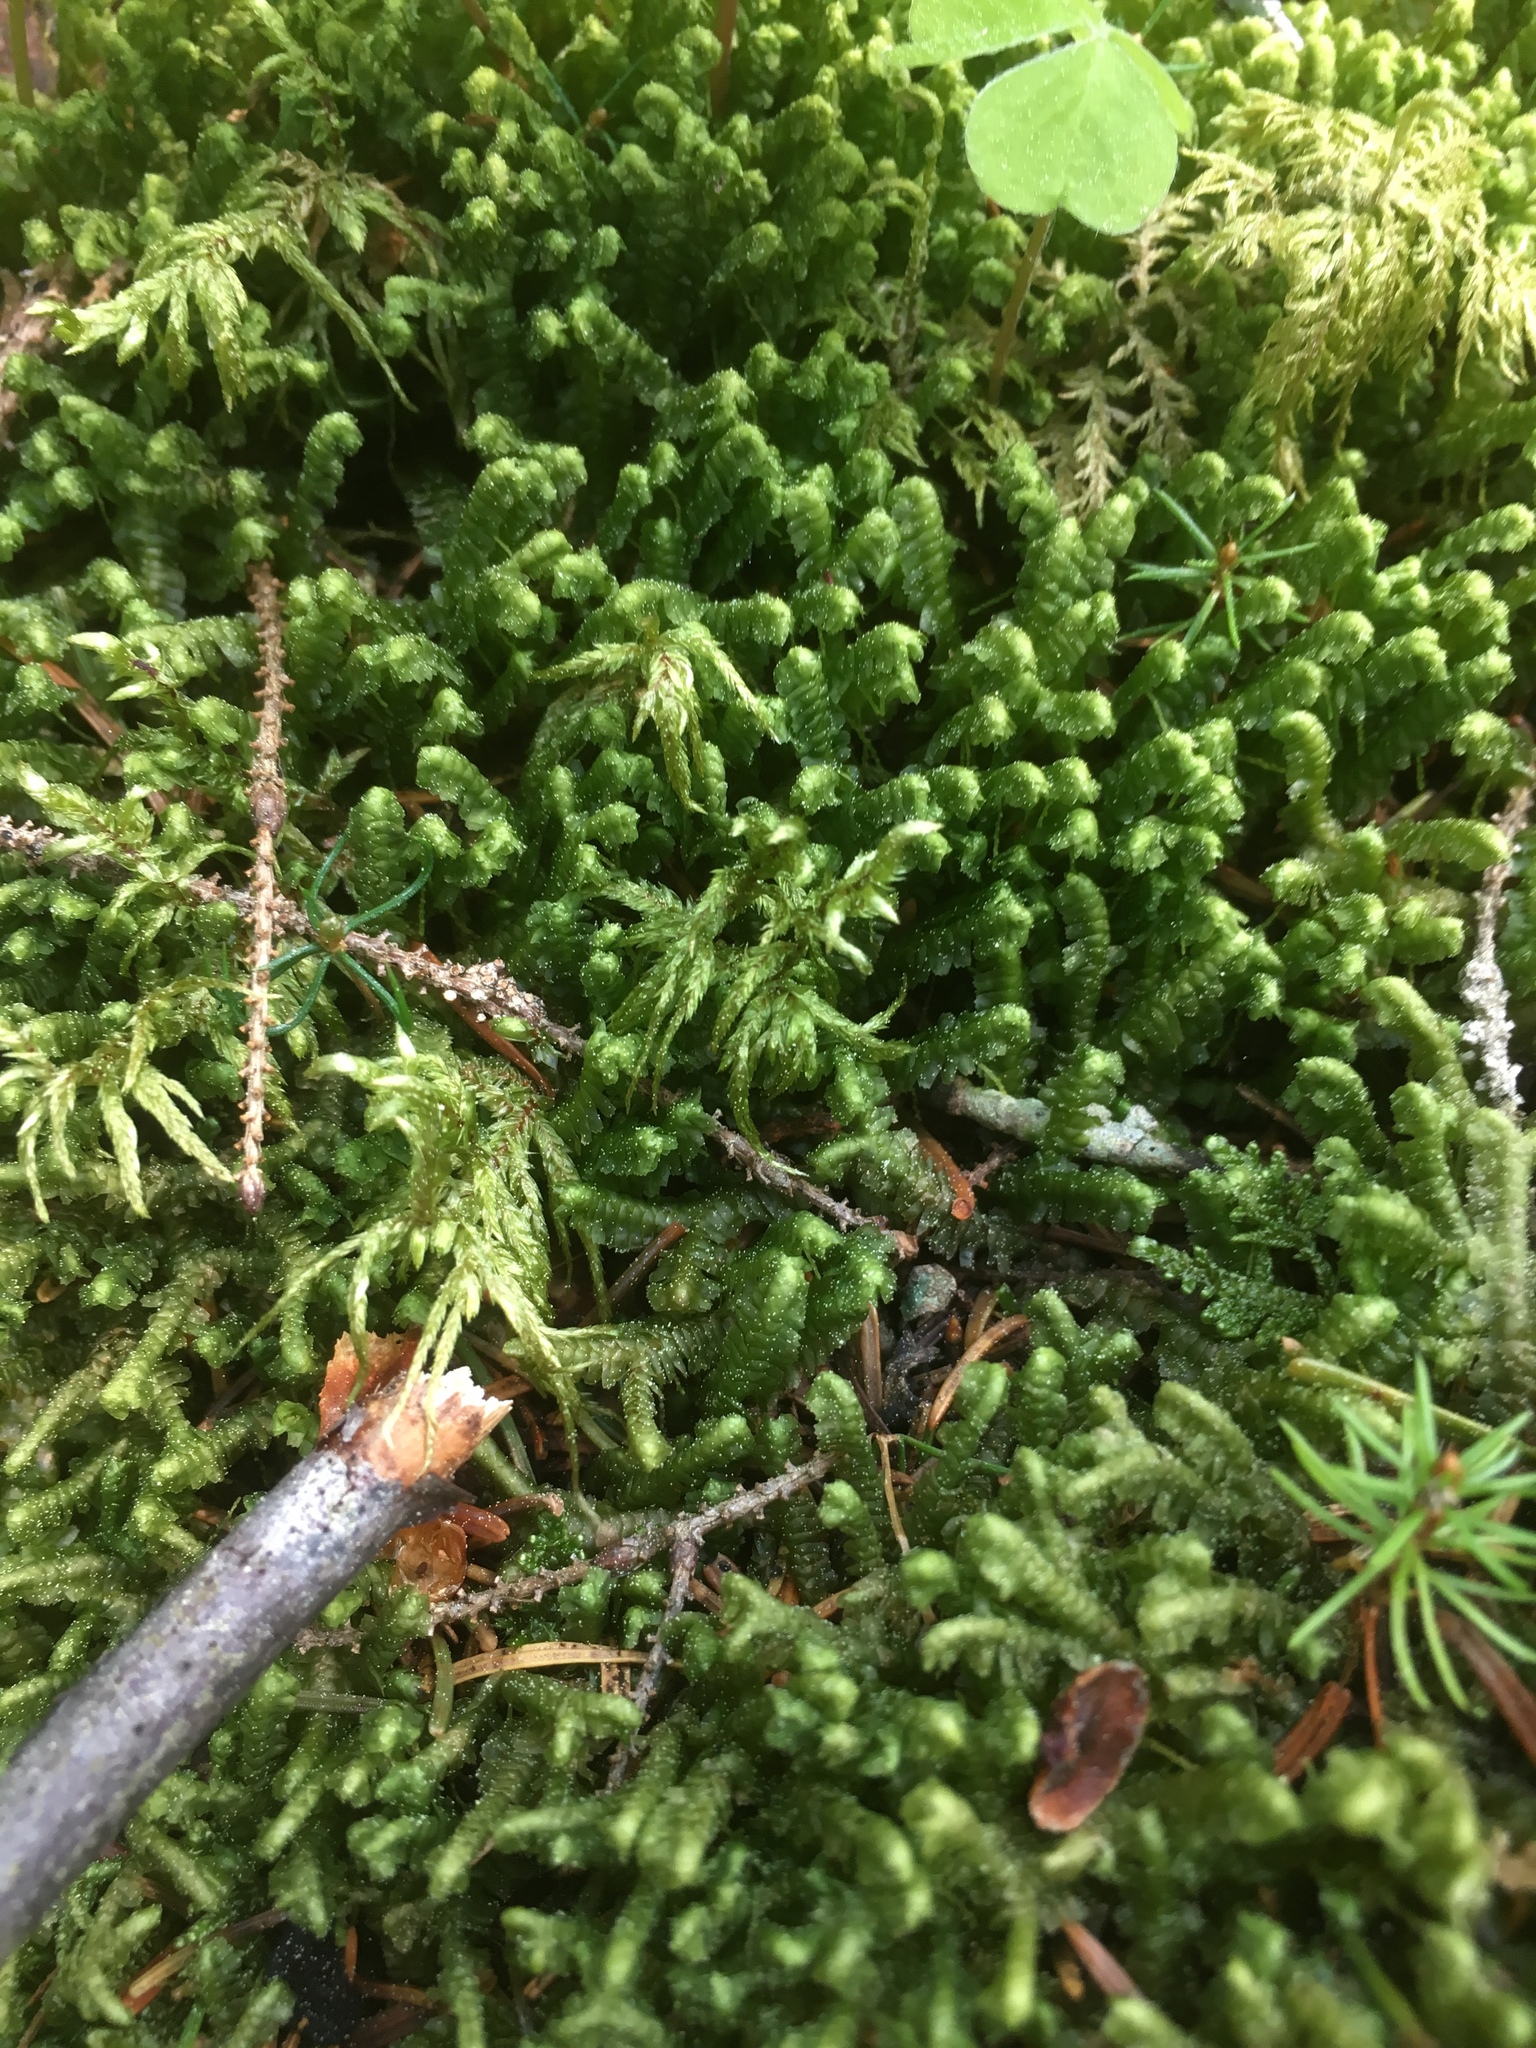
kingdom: Plantae
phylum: Marchantiophyta
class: Jungermanniopsida
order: Jungermanniales
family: Lepidoziaceae
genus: Bazzania
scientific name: Bazzania trilobata
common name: Three-lobed whipwort
